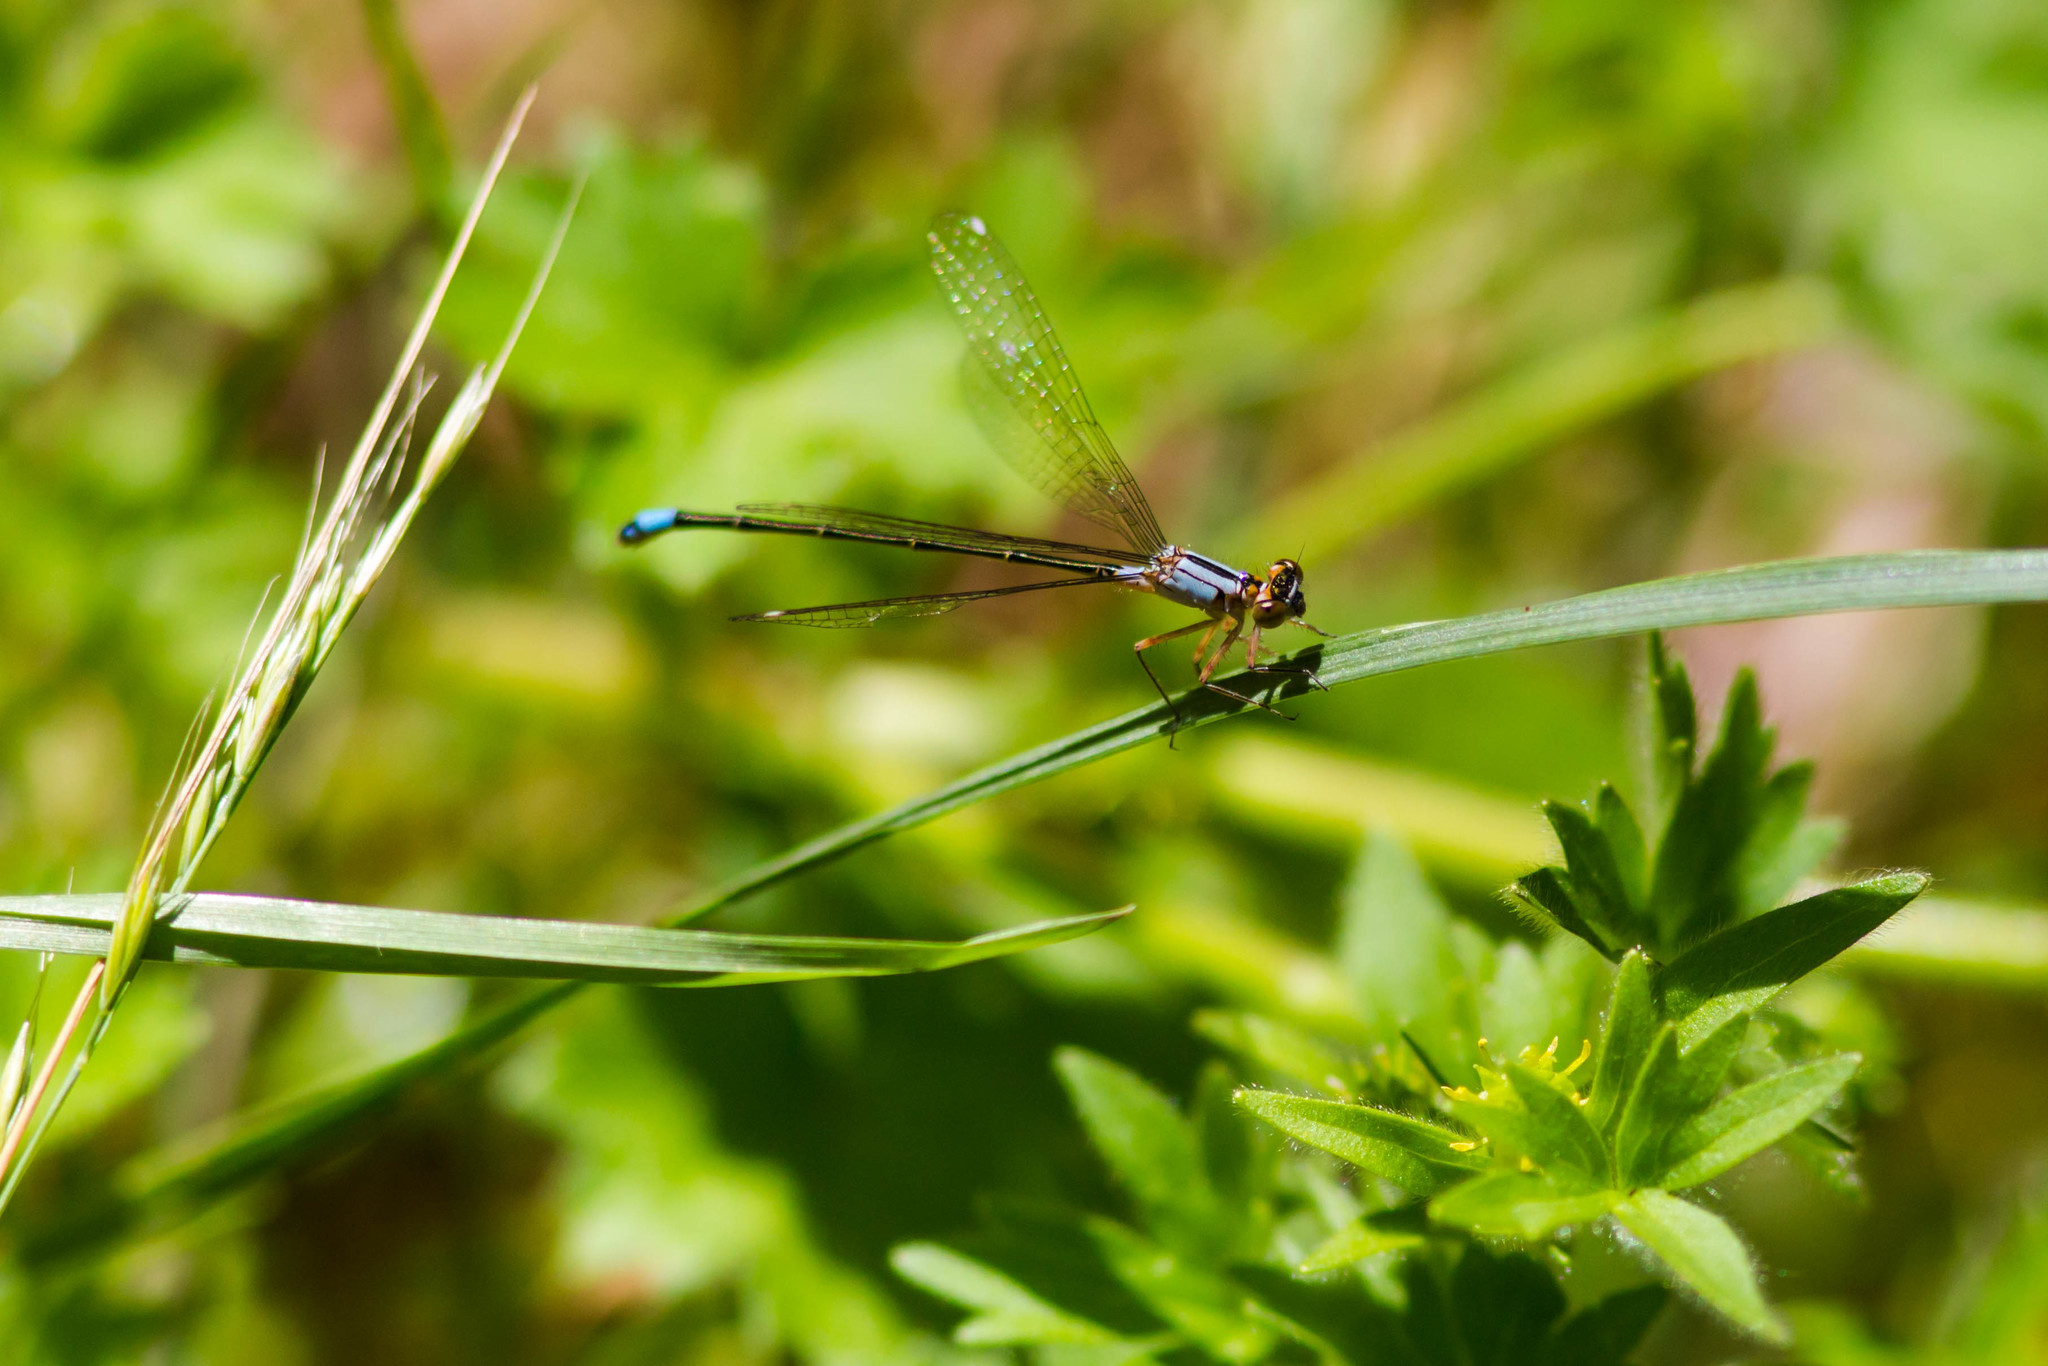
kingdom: Animalia
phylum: Arthropoda
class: Insecta
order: Odonata
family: Coenagrionidae
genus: Ischnura
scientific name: Ischnura cervula
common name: Pacific forktail
